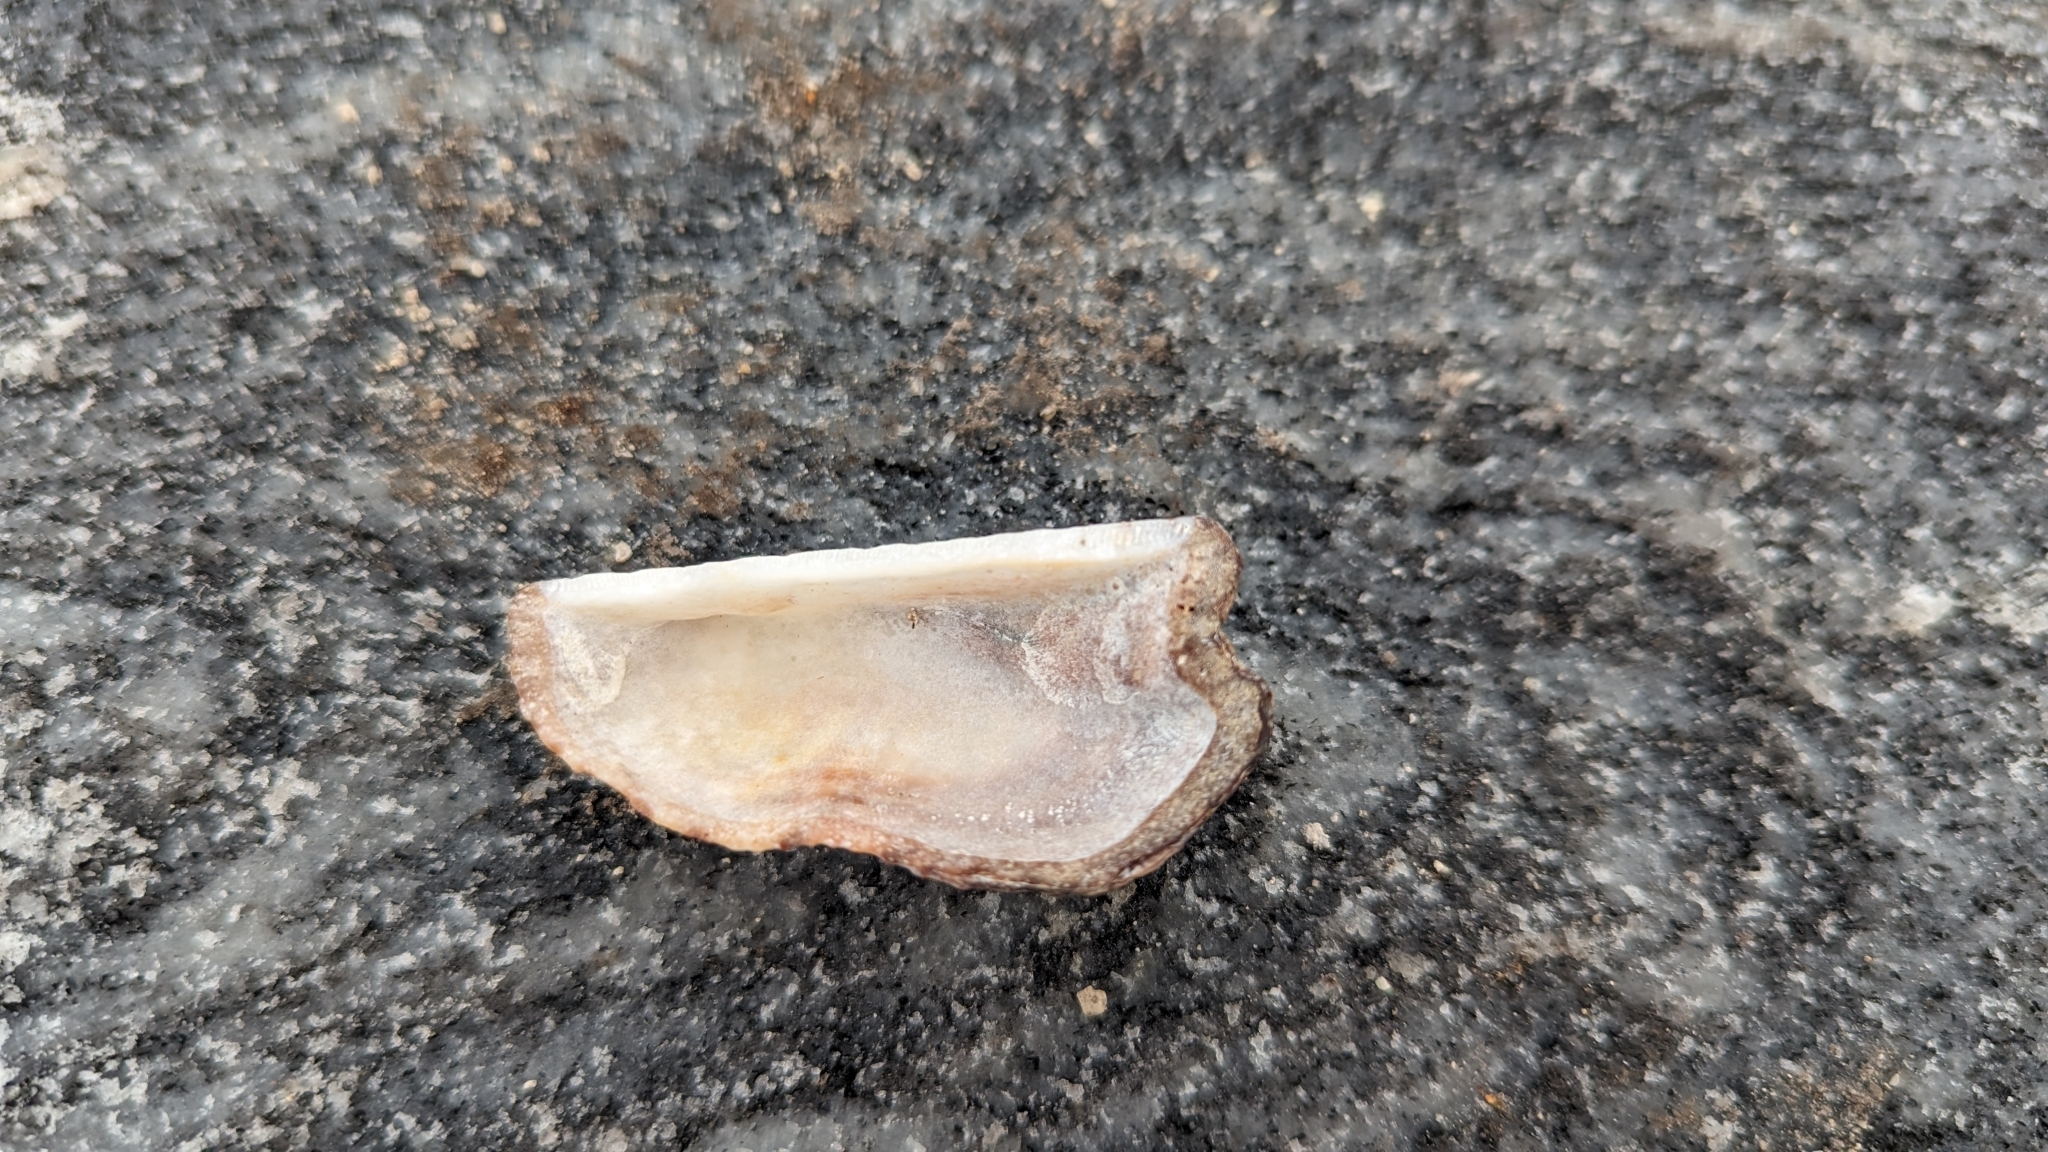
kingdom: Animalia
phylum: Mollusca
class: Bivalvia
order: Arcida
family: Arcidae
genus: Arca
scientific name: Arca zebra
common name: Atlantic turkey wing
